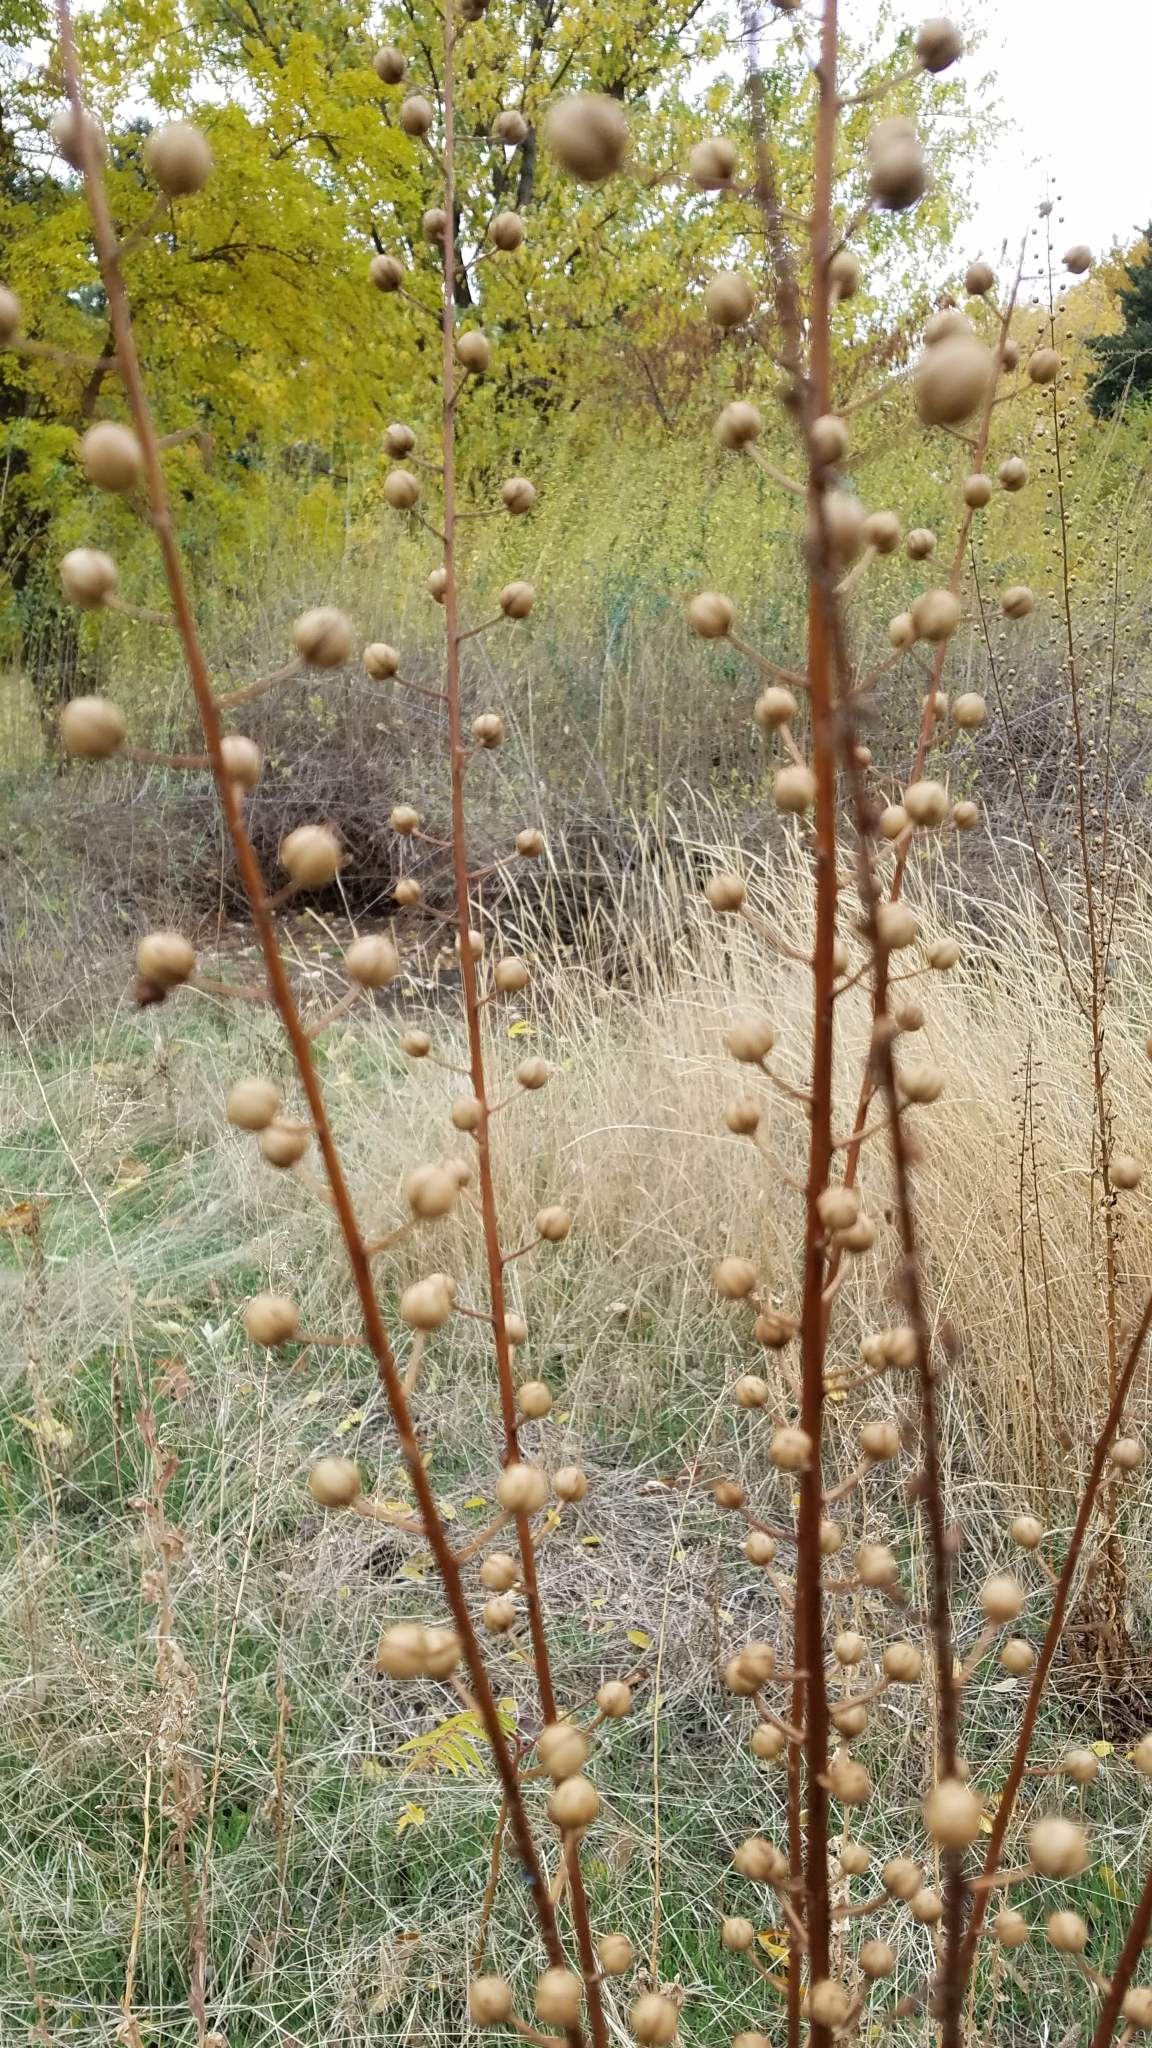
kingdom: Plantae
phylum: Tracheophyta
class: Magnoliopsida
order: Lamiales
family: Scrophulariaceae
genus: Verbascum
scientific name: Verbascum blattaria
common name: Moth mullein
